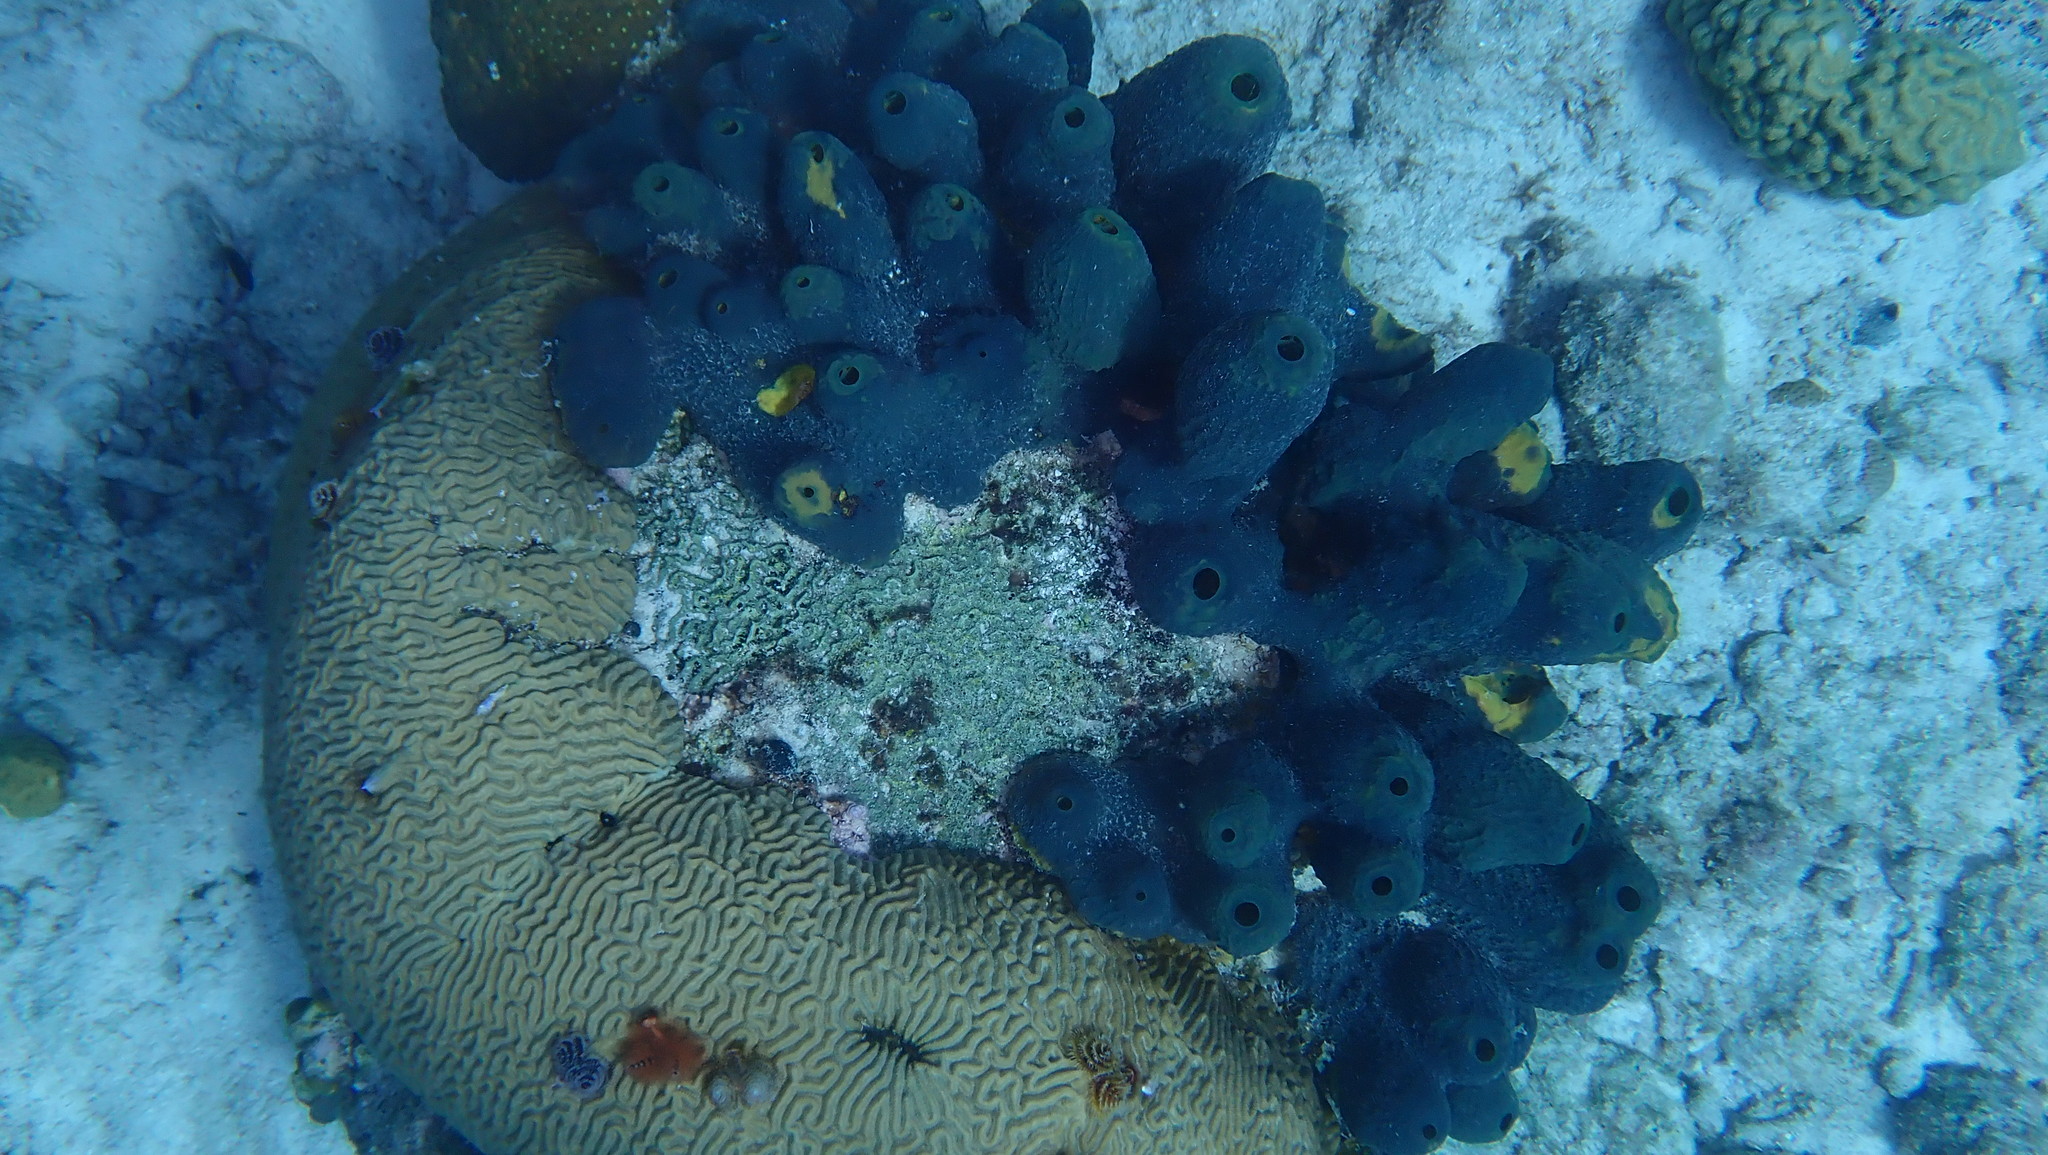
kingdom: Animalia
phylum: Porifera
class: Demospongiae
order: Verongiida
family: Aplysinidae
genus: Verongula
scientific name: Verongula reiswigi
